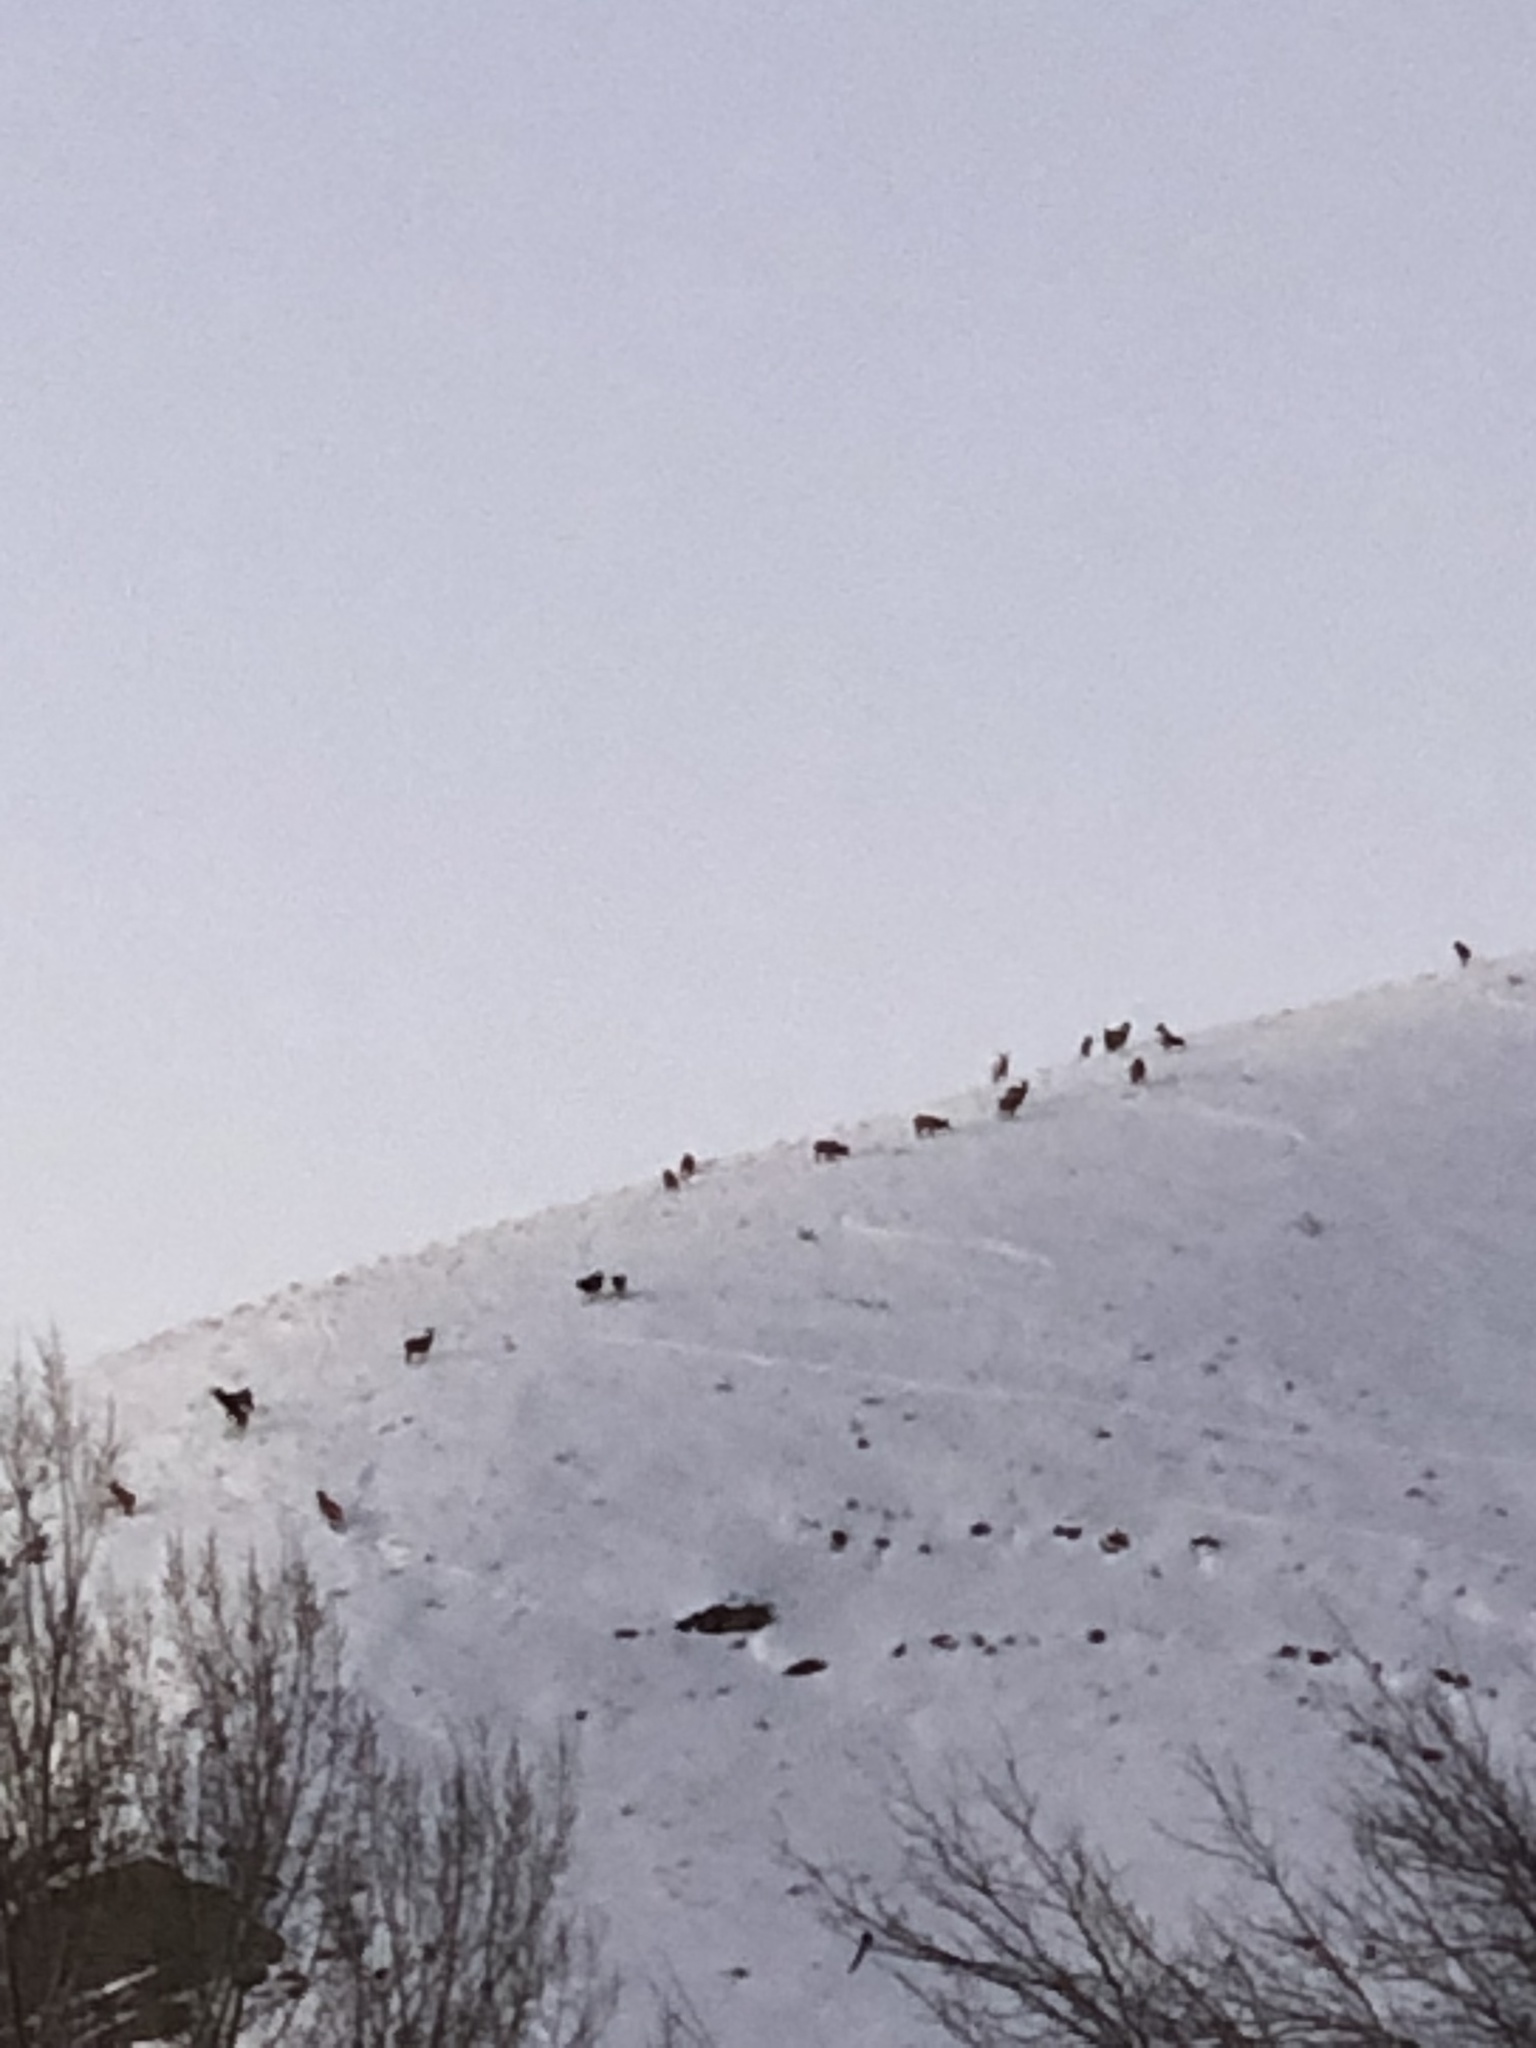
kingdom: Animalia
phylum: Chordata
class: Mammalia
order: Artiodactyla
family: Cervidae
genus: Cervus
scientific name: Cervus elaphus
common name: Red deer
